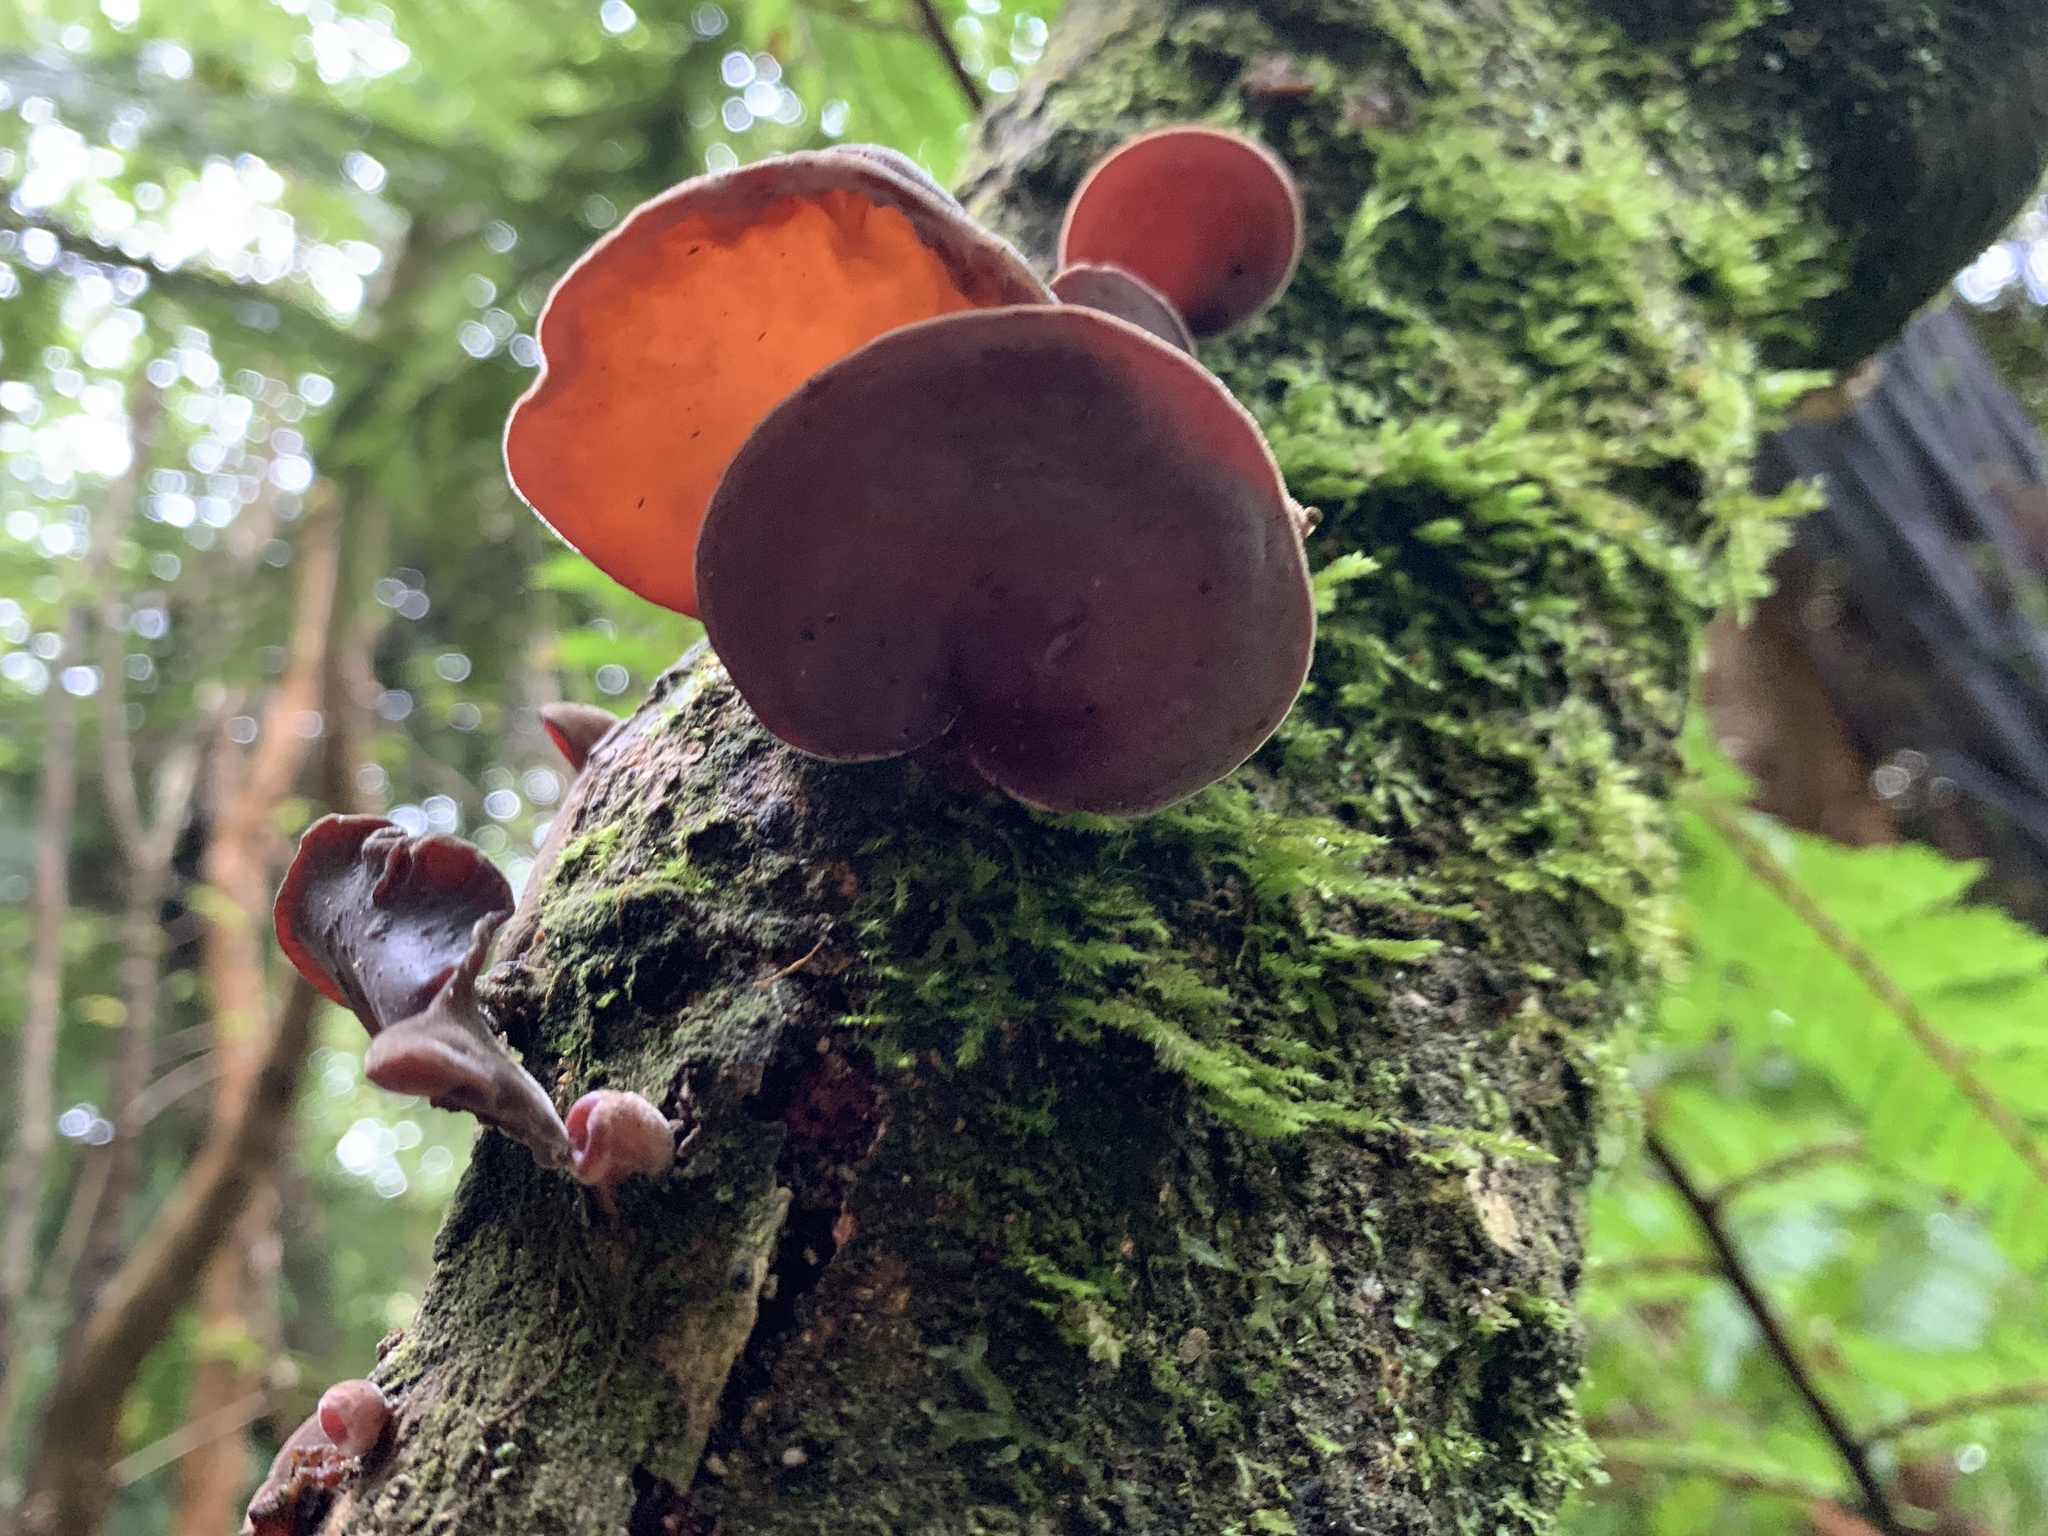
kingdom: Fungi
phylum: Basidiomycota
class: Agaricomycetes
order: Auriculariales
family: Auriculariaceae
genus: Auricularia
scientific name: Auricularia cornea
